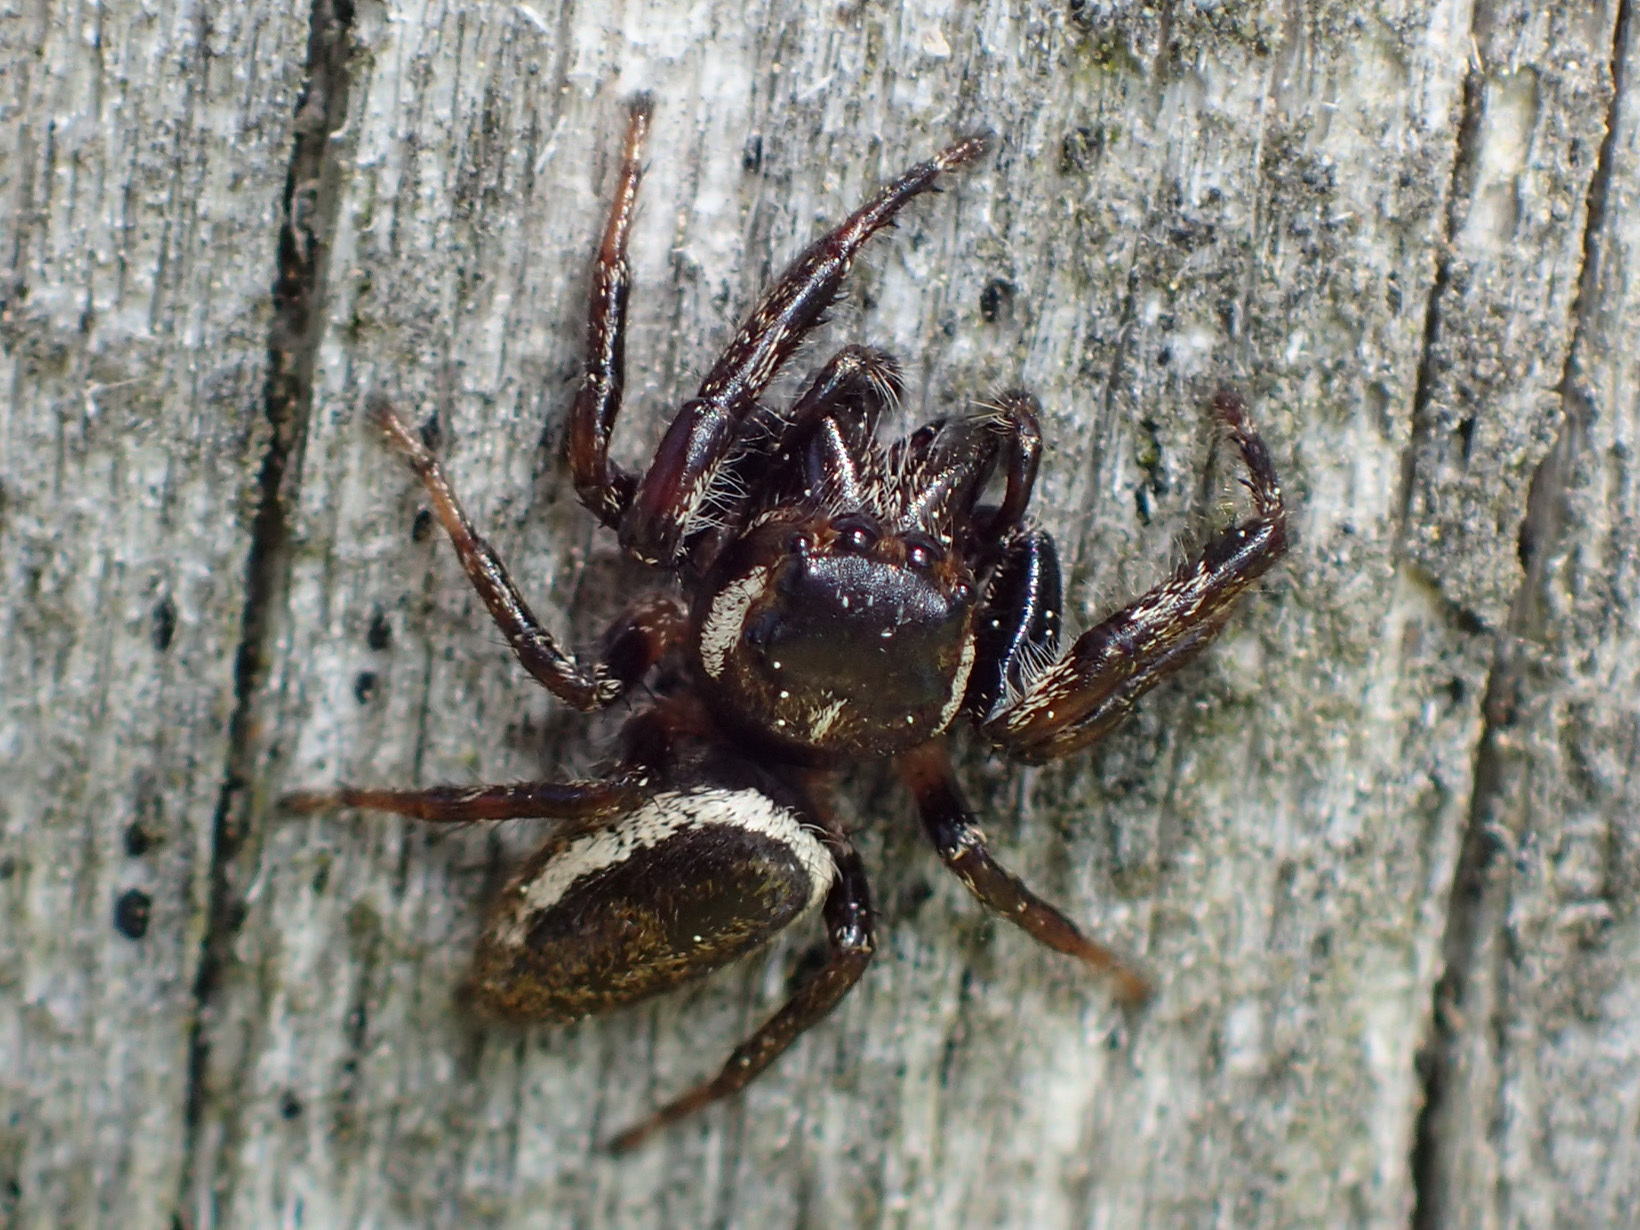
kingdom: Animalia
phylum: Arthropoda
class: Arachnida
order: Araneae
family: Salticidae
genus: Eris
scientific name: Eris militaris
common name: Bronze jumper
